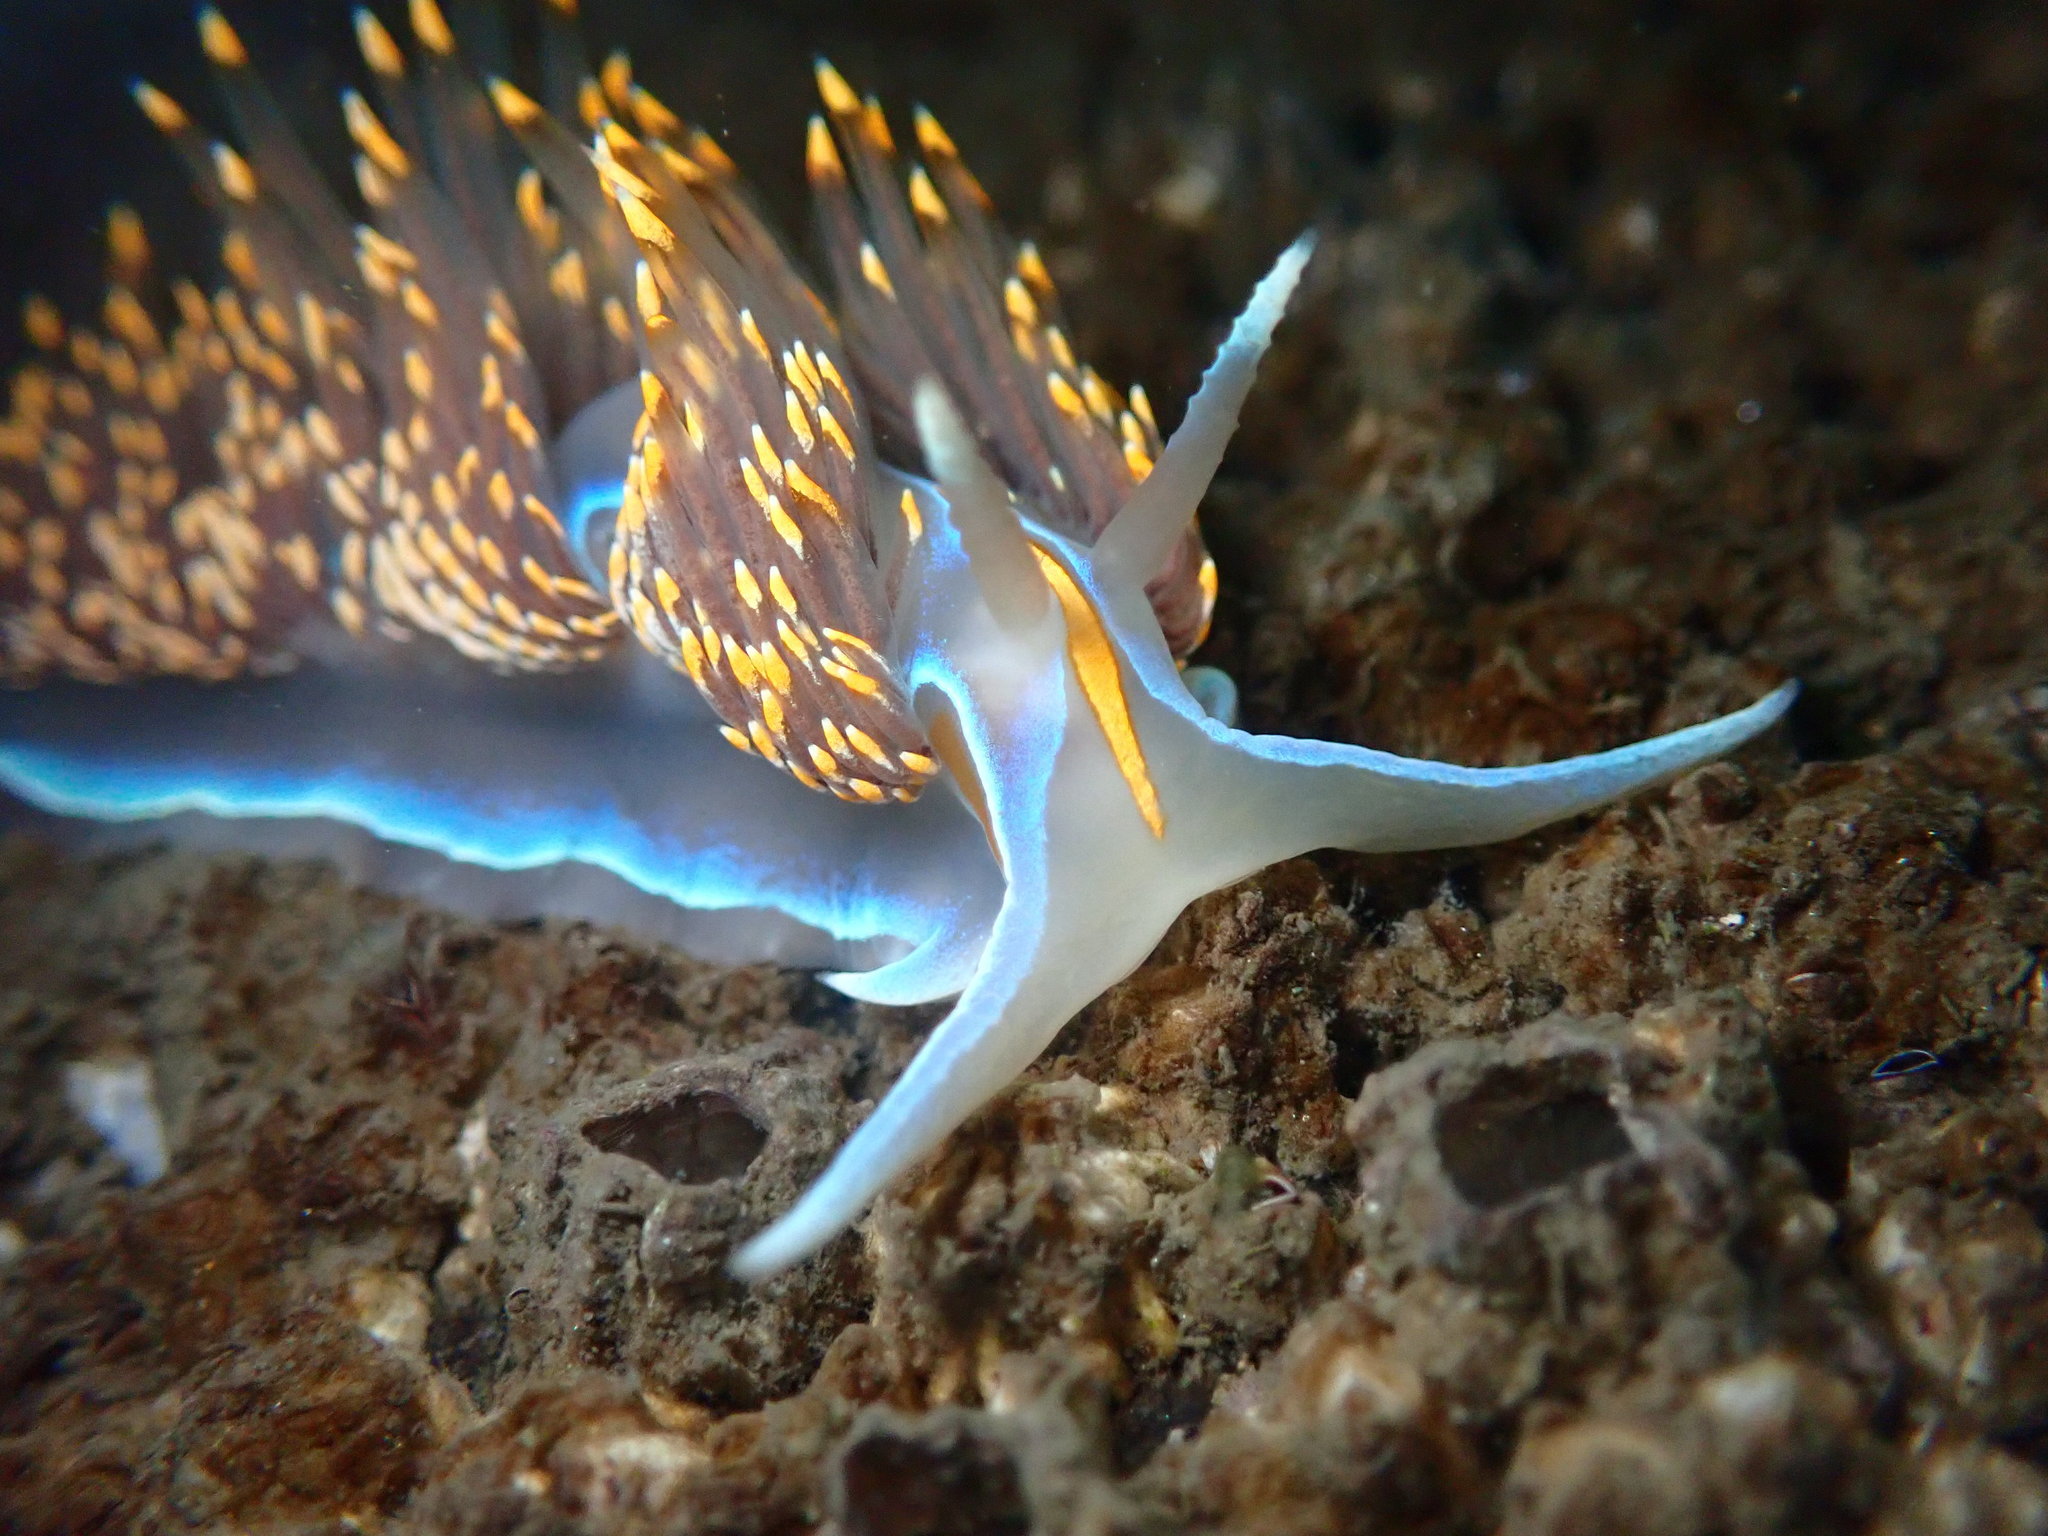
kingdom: Animalia
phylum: Mollusca
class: Gastropoda
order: Nudibranchia
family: Myrrhinidae
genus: Hermissenda
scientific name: Hermissenda opalescens
